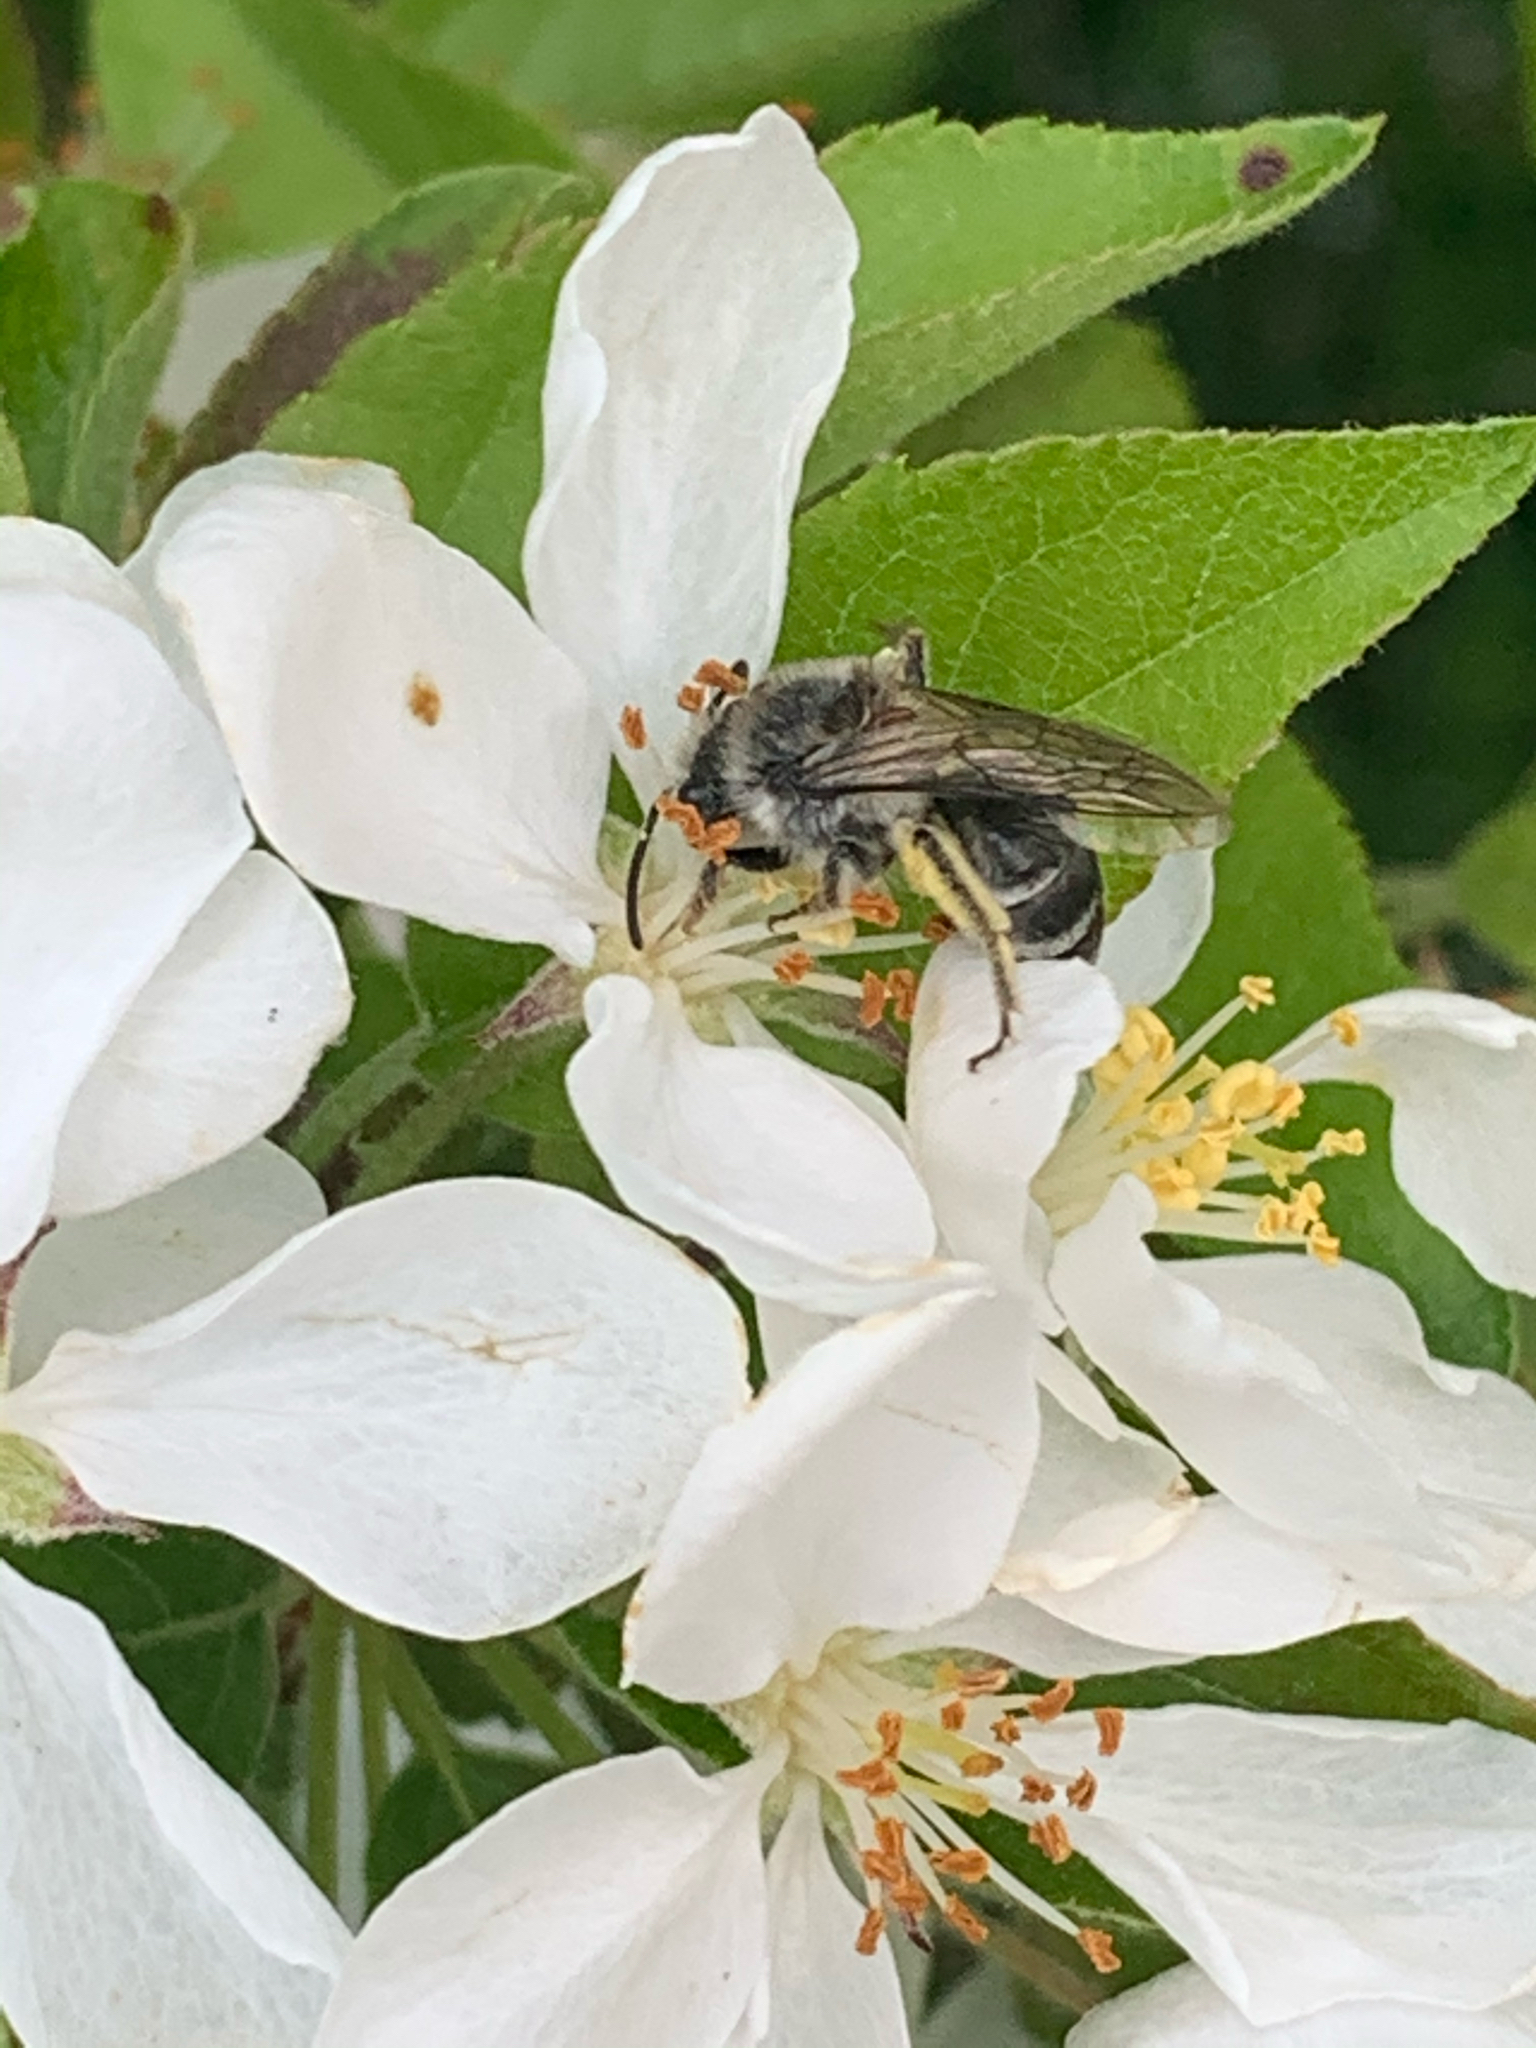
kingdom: Animalia
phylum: Arthropoda
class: Insecta
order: Hymenoptera
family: Colletidae
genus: Colletes
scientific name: Colletes
